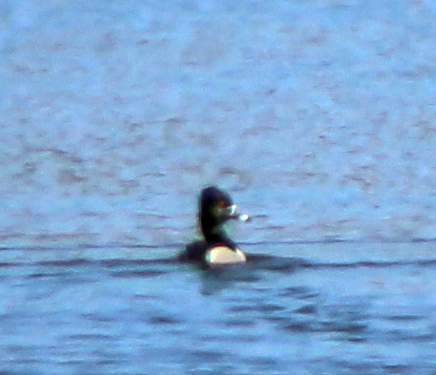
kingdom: Animalia
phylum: Chordata
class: Aves
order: Anseriformes
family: Anatidae
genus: Aythya
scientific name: Aythya collaris
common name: Ring-necked duck
